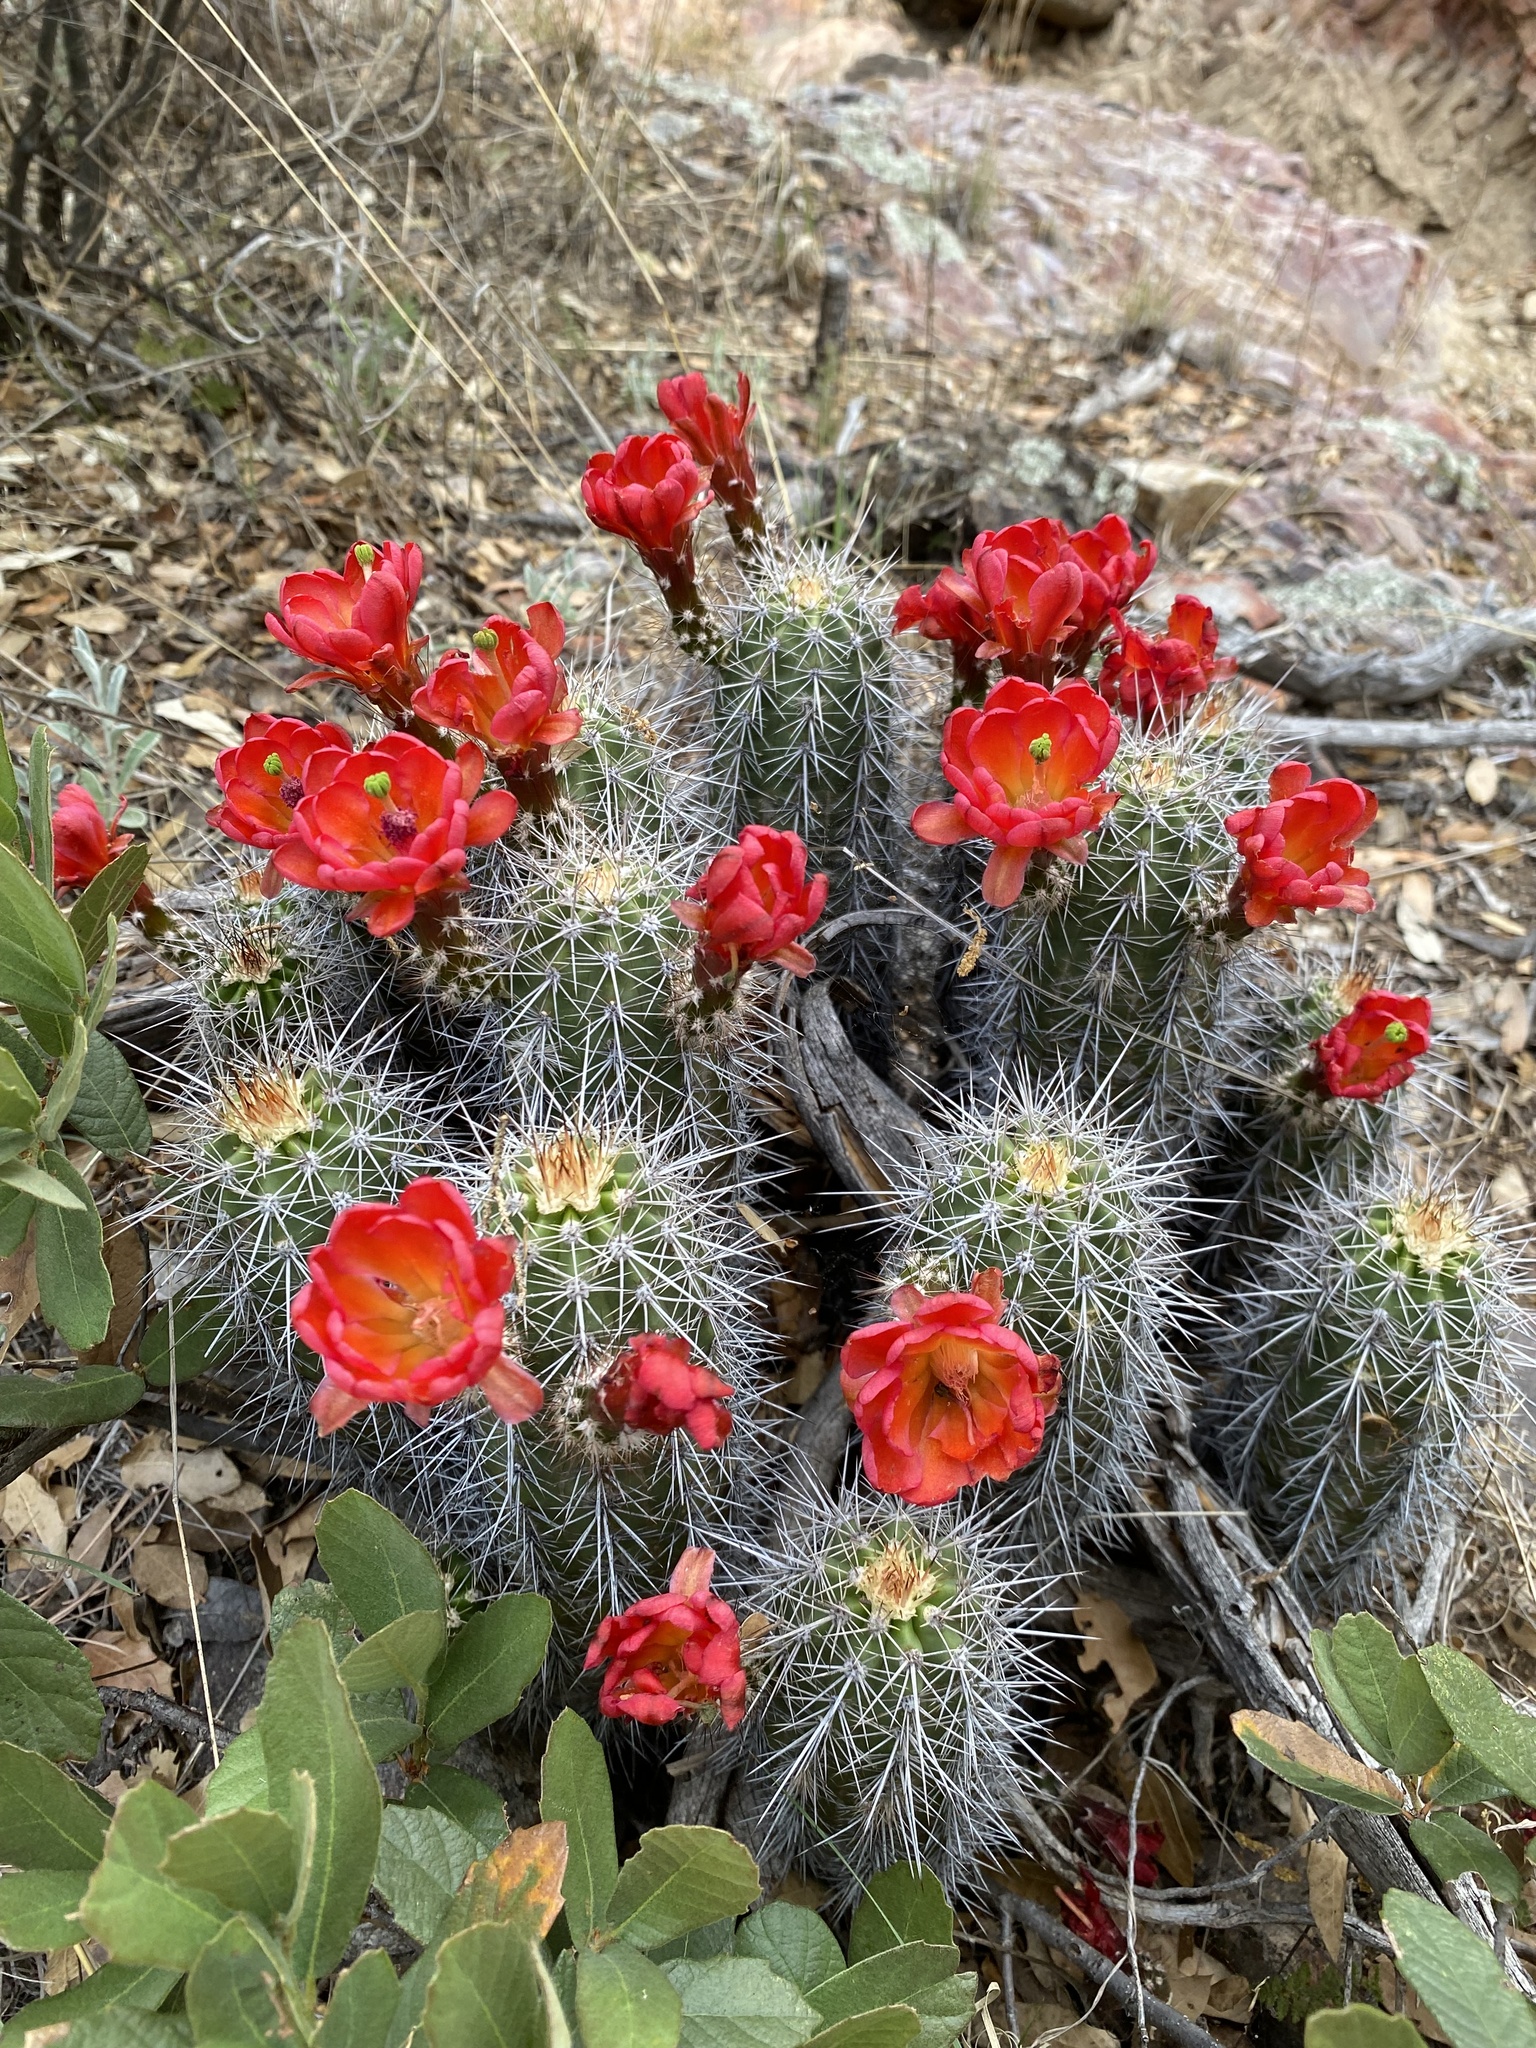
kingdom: Plantae
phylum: Tracheophyta
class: Magnoliopsida
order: Caryophyllales
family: Cactaceae
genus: Echinocereus
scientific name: Echinocereus coccineus
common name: Scarlet hedgehog cactus
